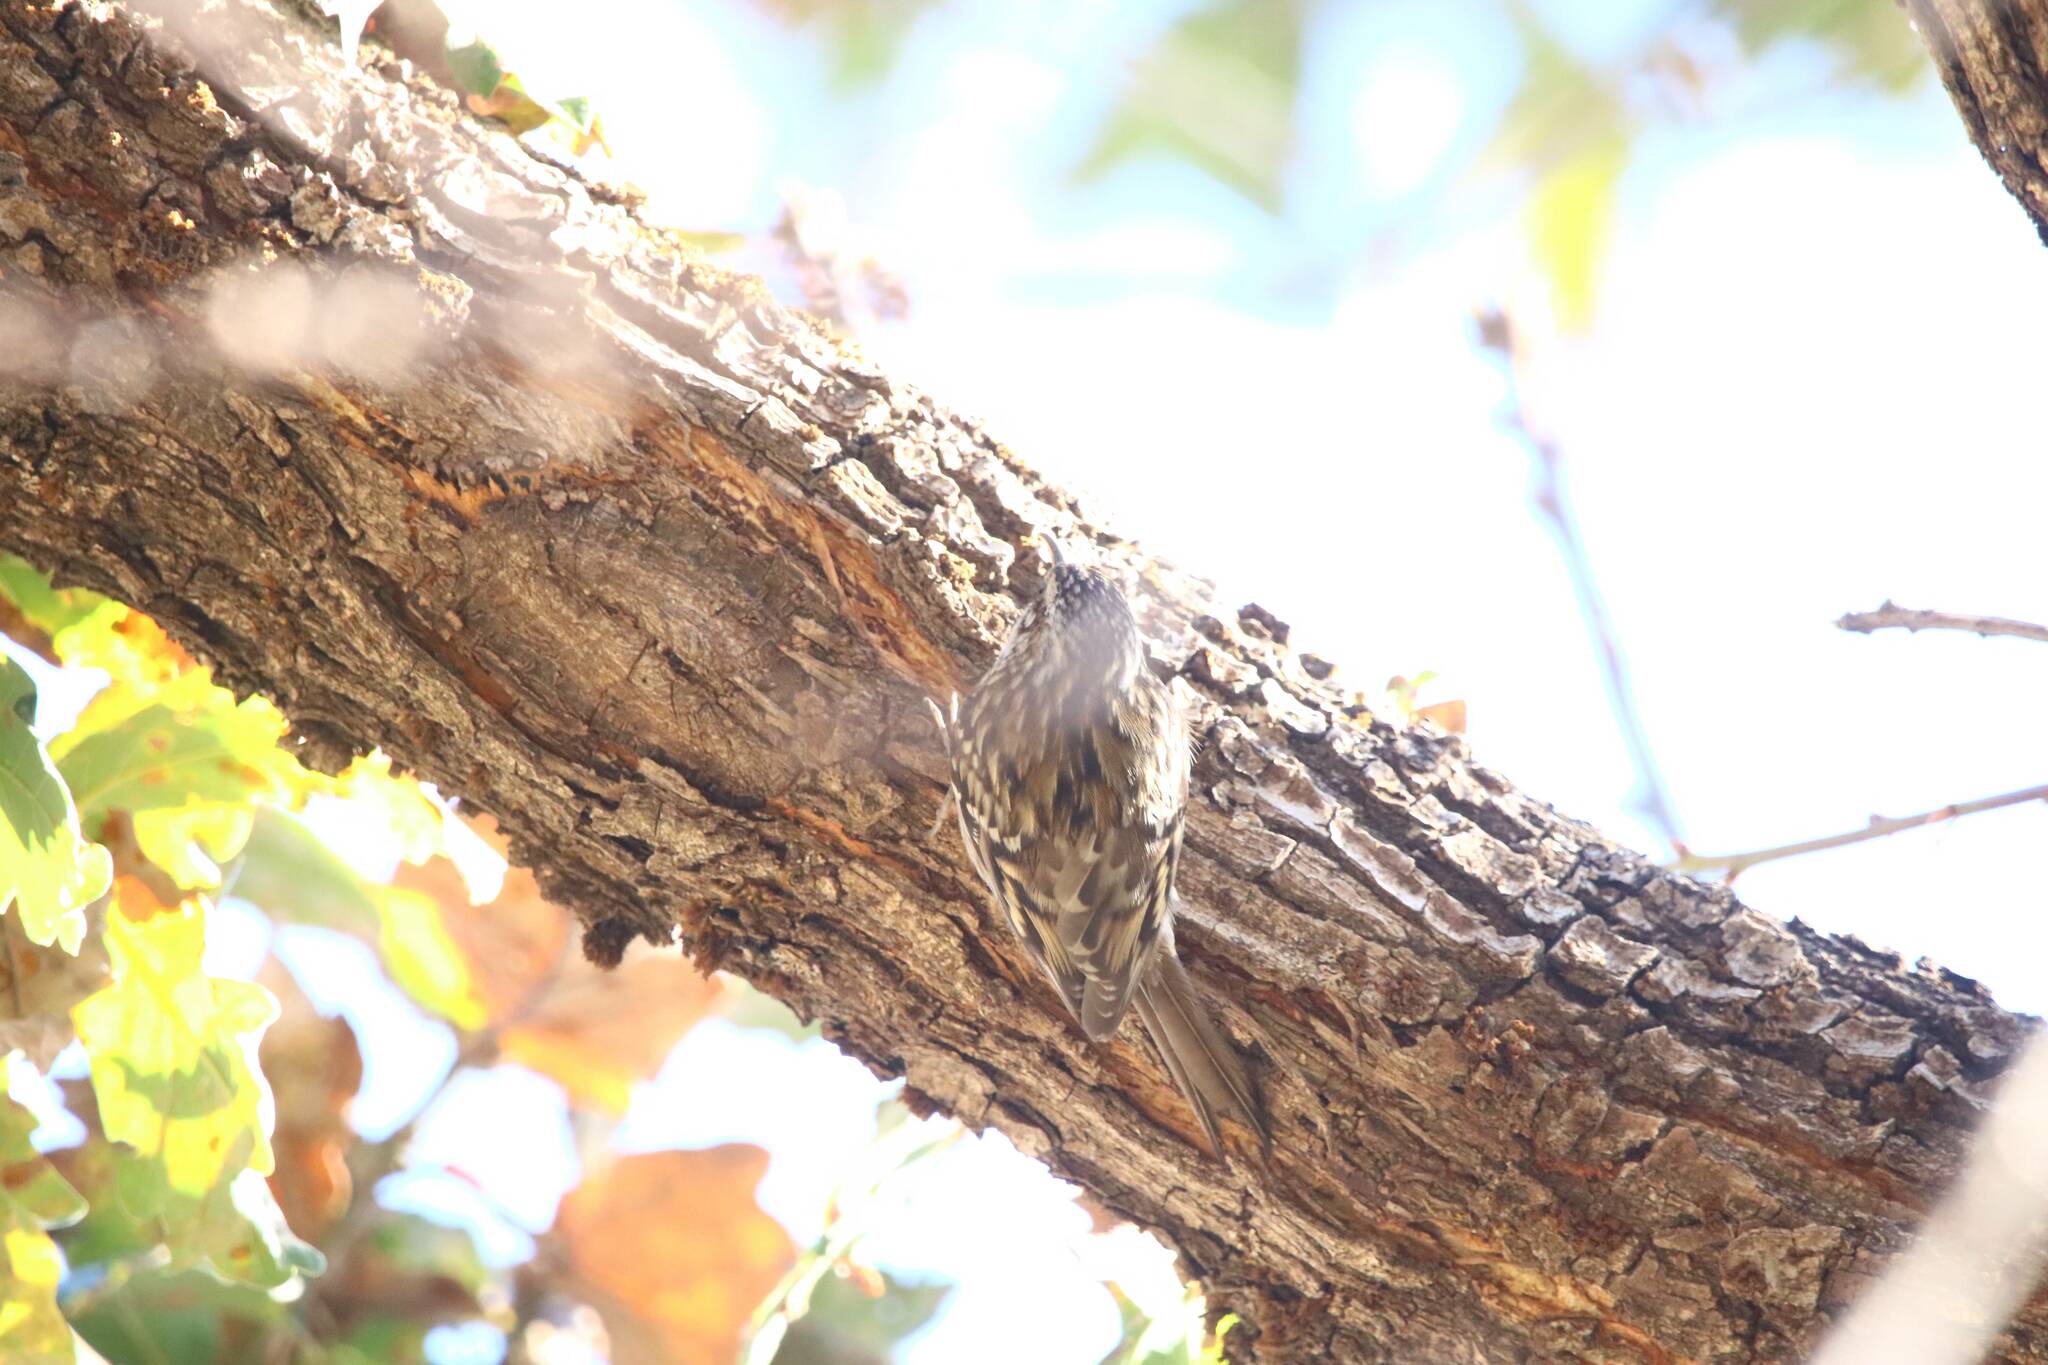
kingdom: Animalia
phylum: Chordata
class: Aves
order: Passeriformes
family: Certhiidae
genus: Certhia
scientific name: Certhia brachydactyla
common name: Short-toed treecreeper
